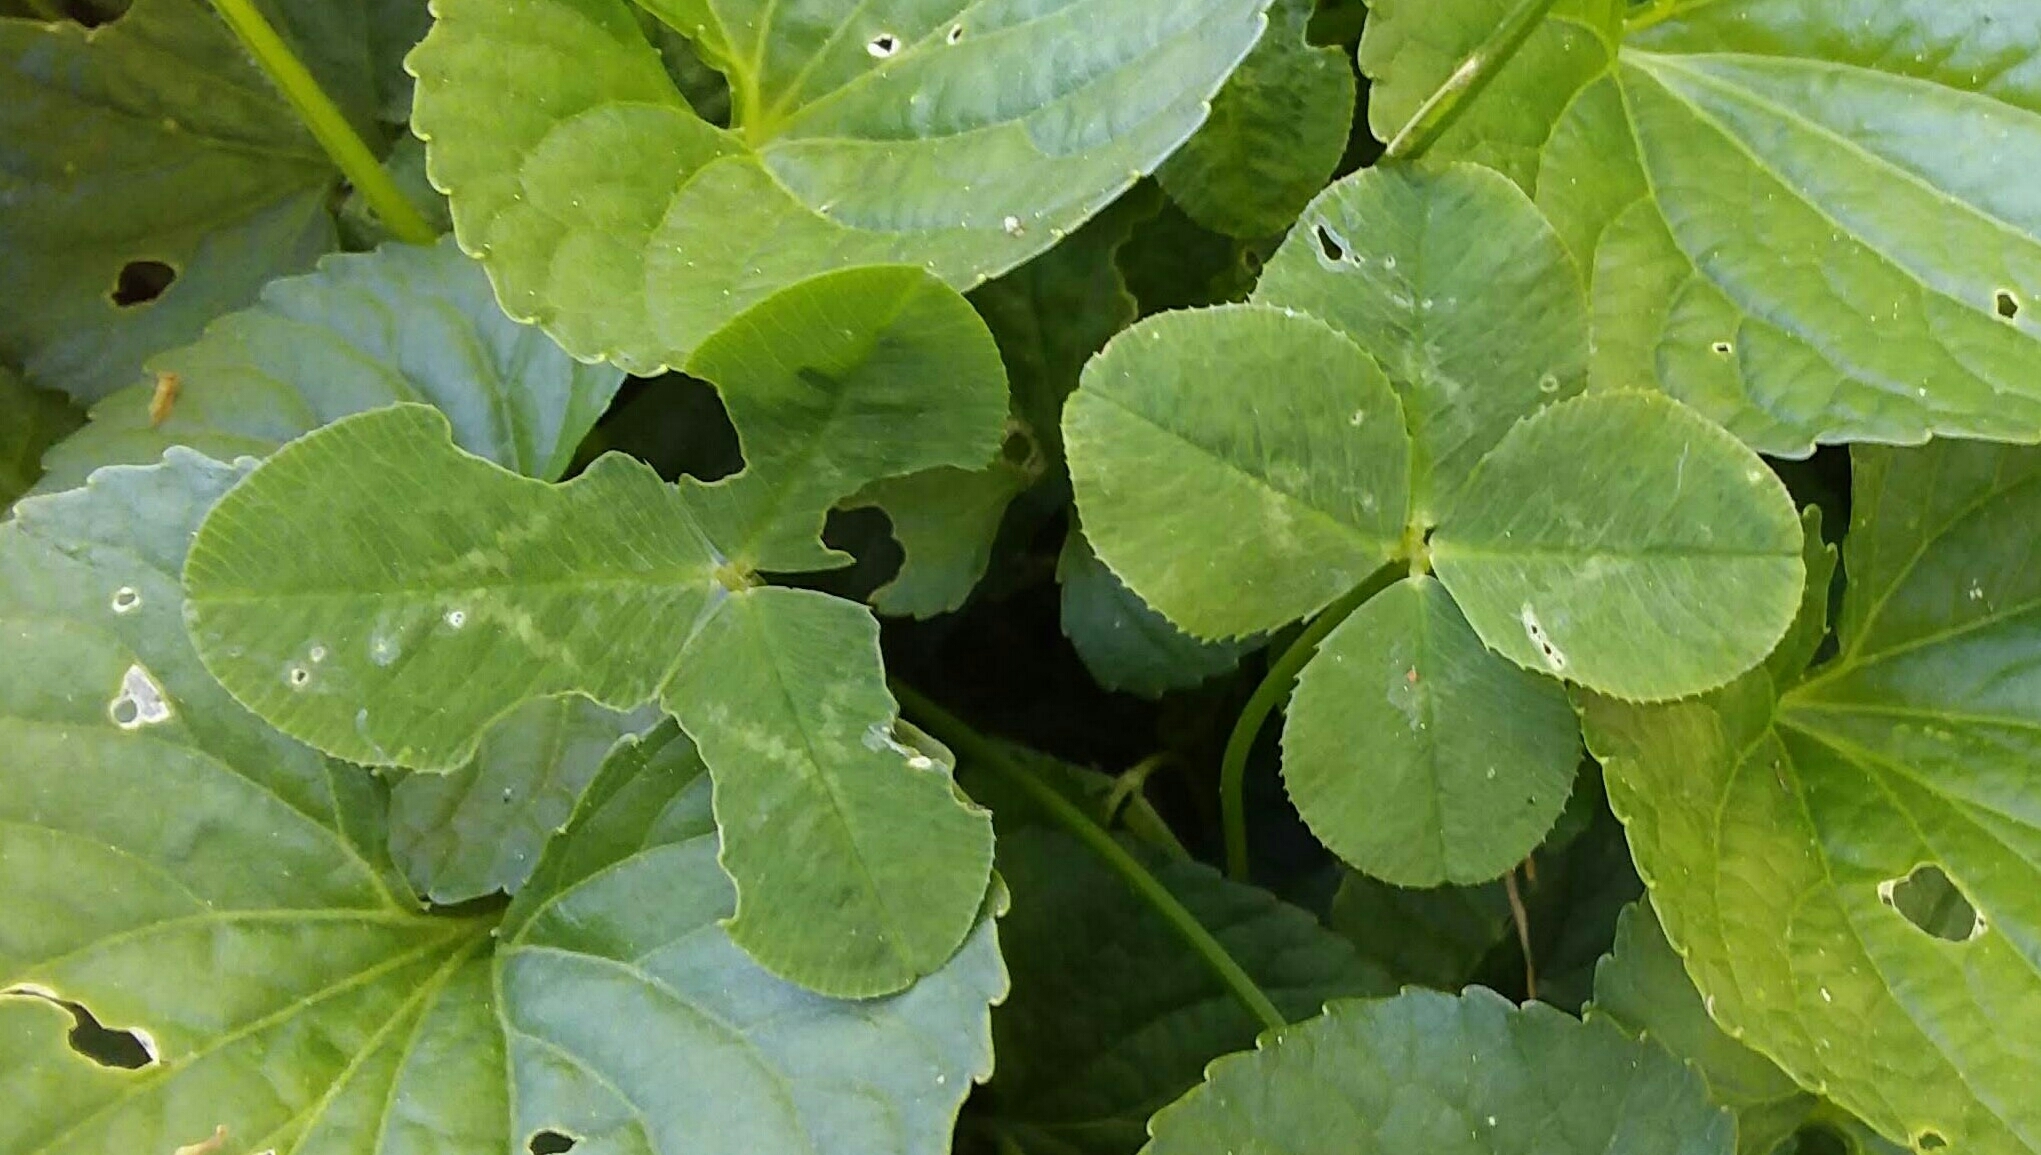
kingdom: Plantae
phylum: Tracheophyta
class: Magnoliopsida
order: Fabales
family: Fabaceae
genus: Trifolium
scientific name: Trifolium repens
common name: White clover
